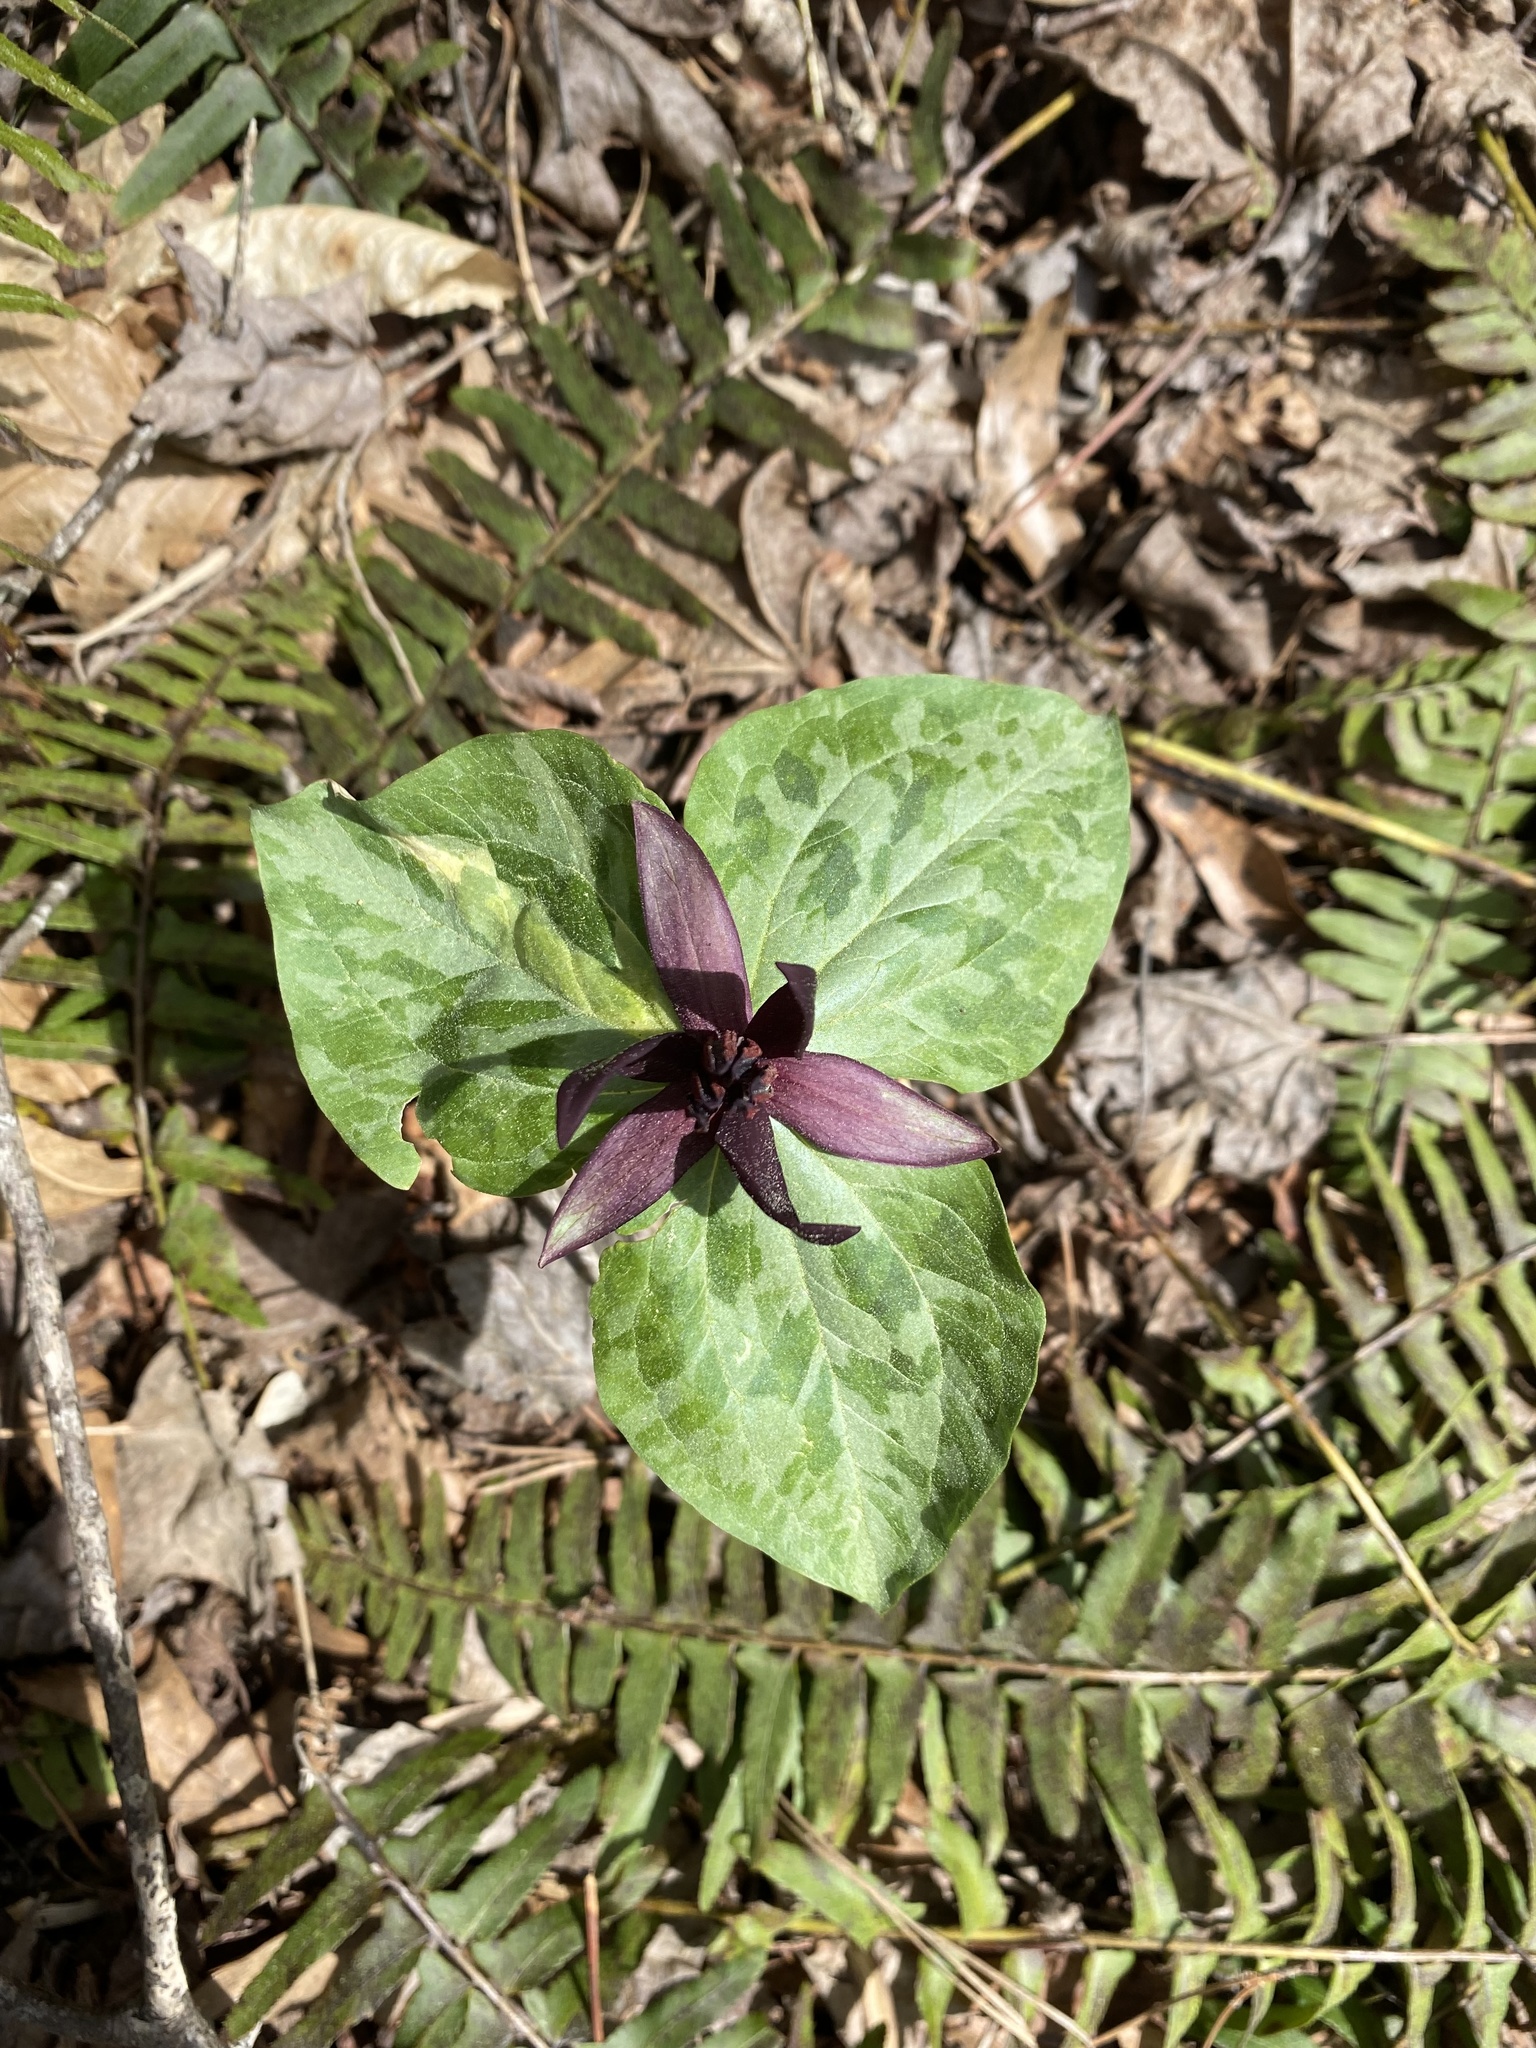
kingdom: Plantae
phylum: Tracheophyta
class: Liliopsida
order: Liliales
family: Melanthiaceae
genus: Trillium
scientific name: Trillium stamineum
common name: Blue ridge wakerobin
